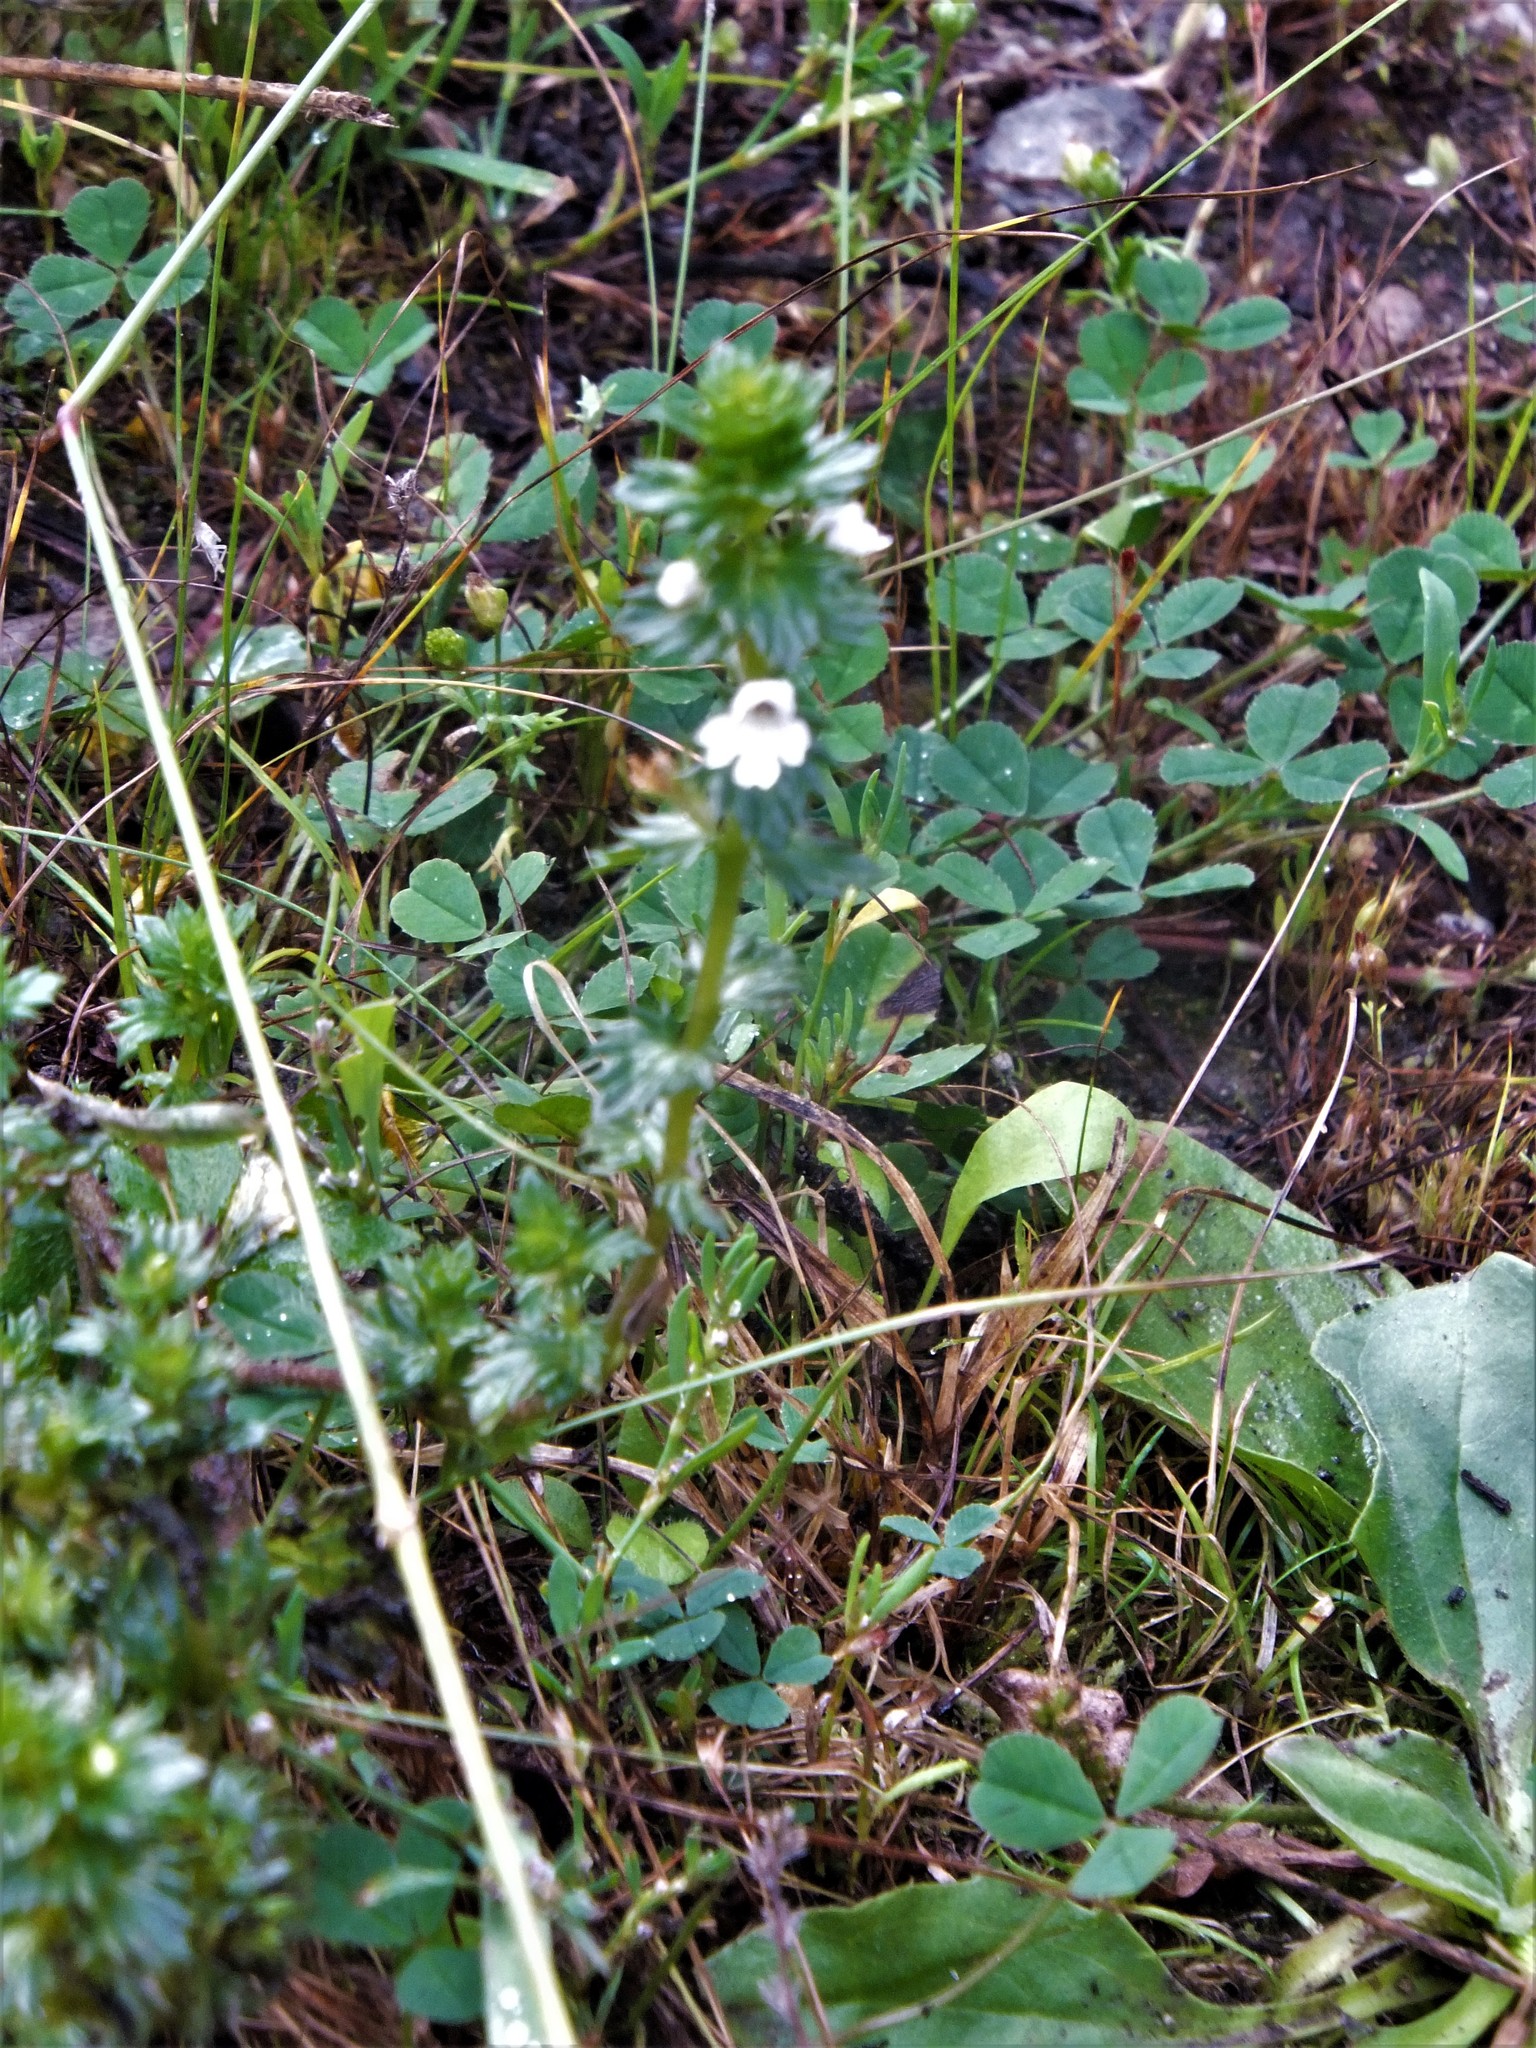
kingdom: Plantae
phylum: Tracheophyta
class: Magnoliopsida
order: Lamiales
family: Orobanchaceae
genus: Euphrasia
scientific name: Euphrasia nemorosa
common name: Common eyebright
